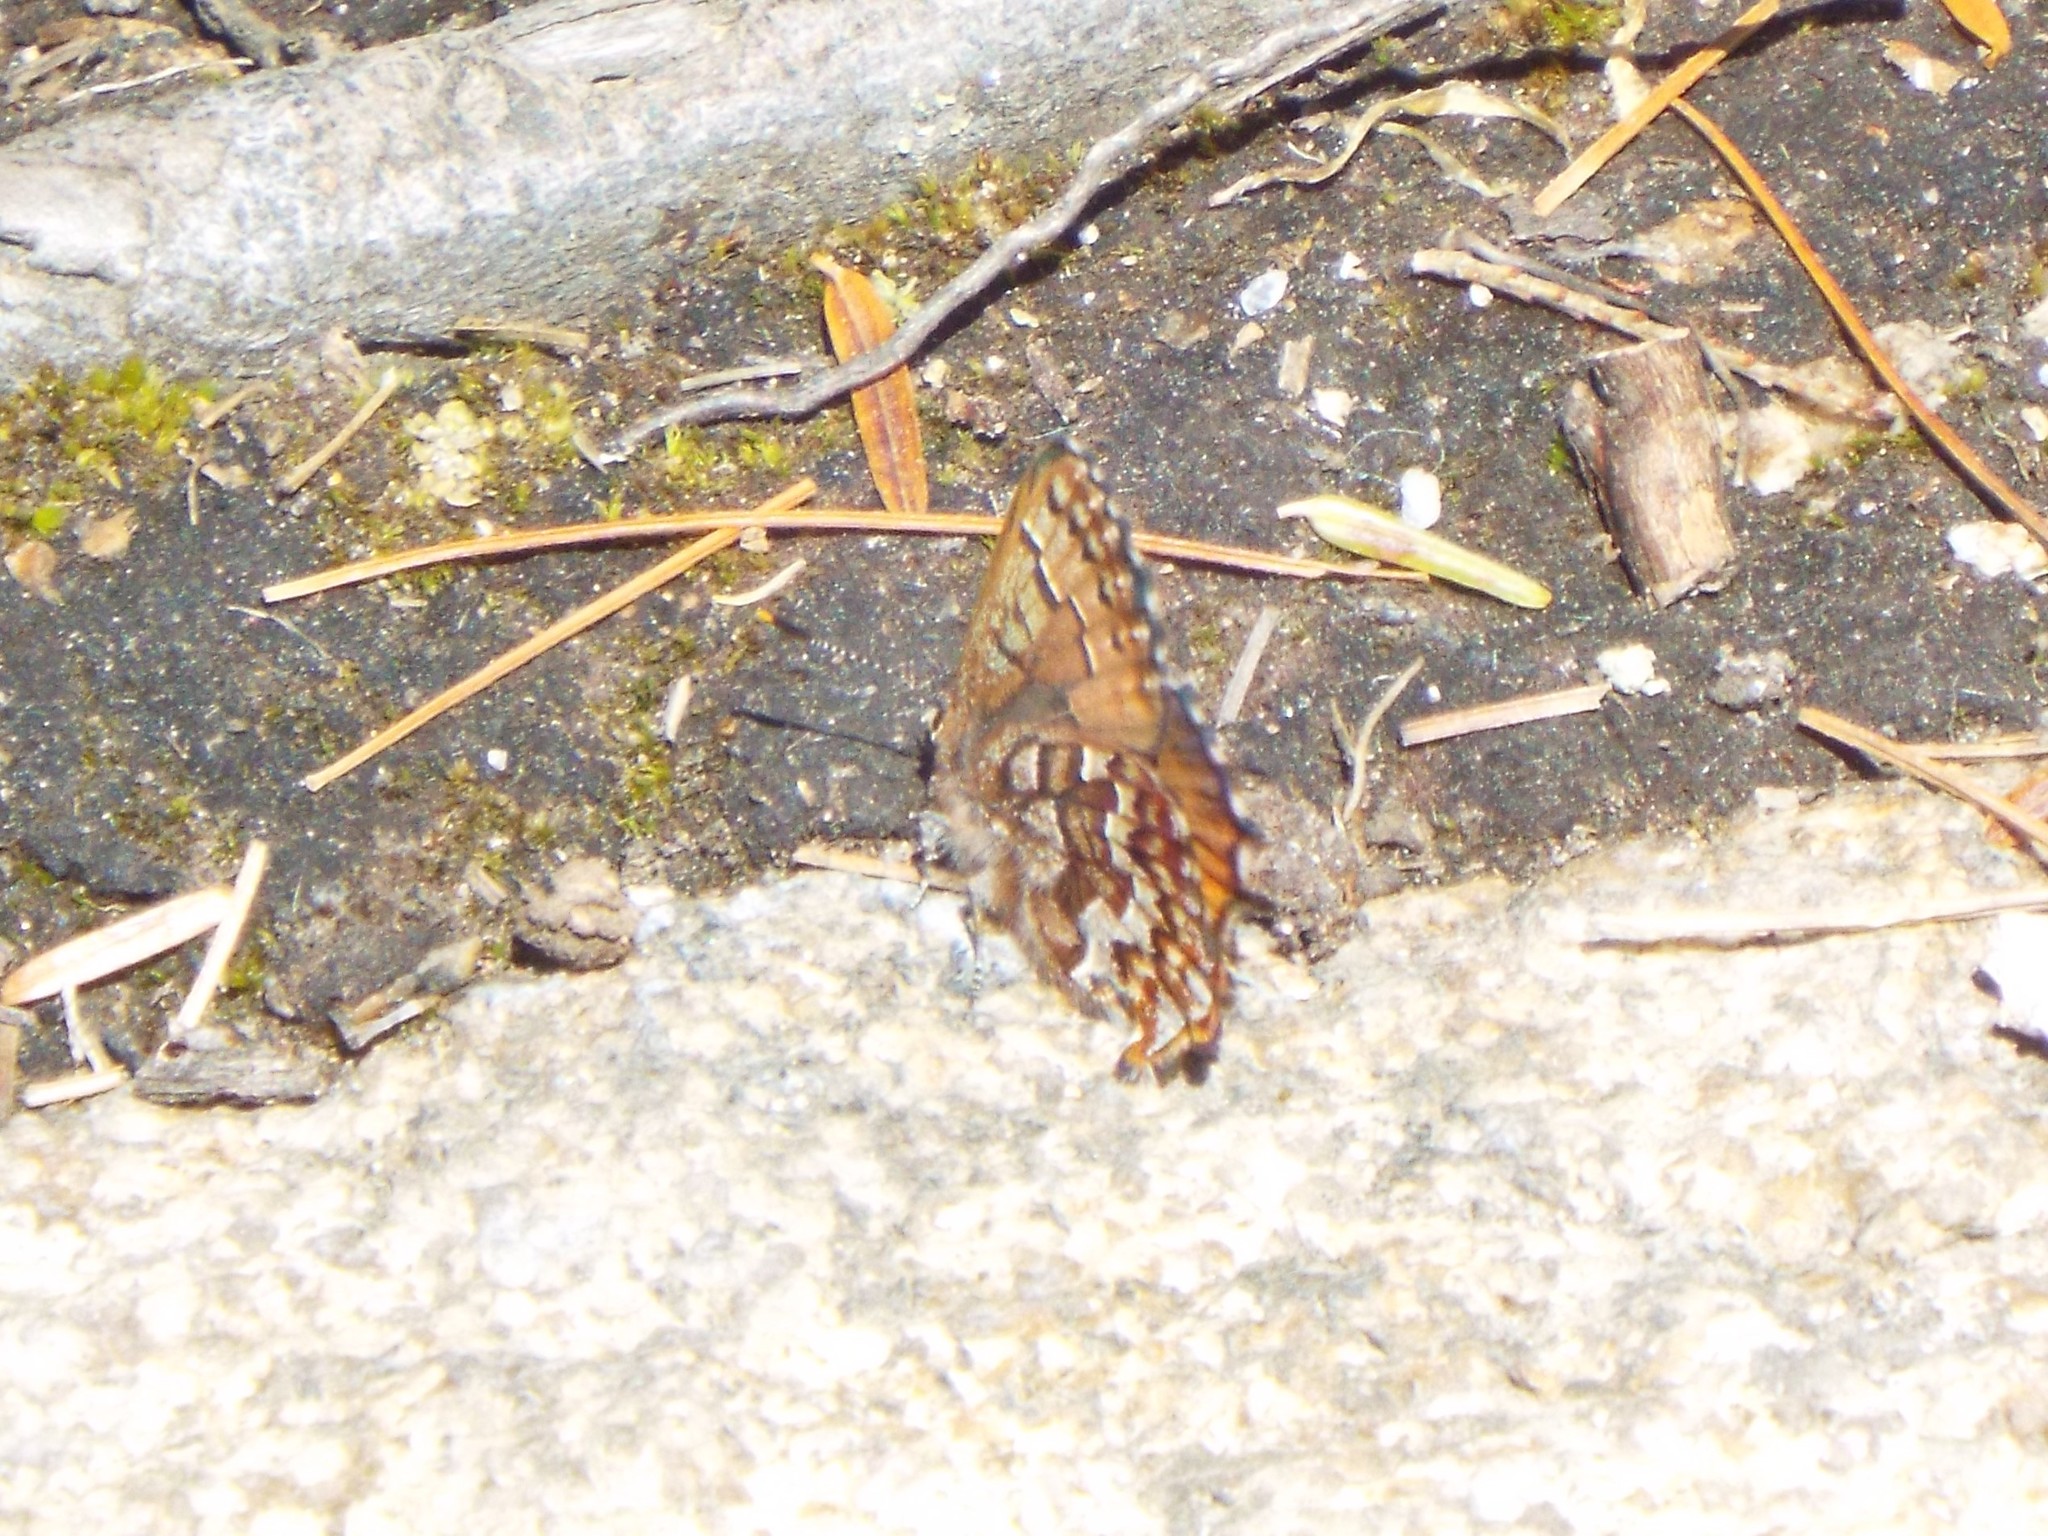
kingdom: Animalia
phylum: Arthropoda
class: Insecta
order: Lepidoptera
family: Lycaenidae
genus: Incisalia
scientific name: Incisalia niphon
